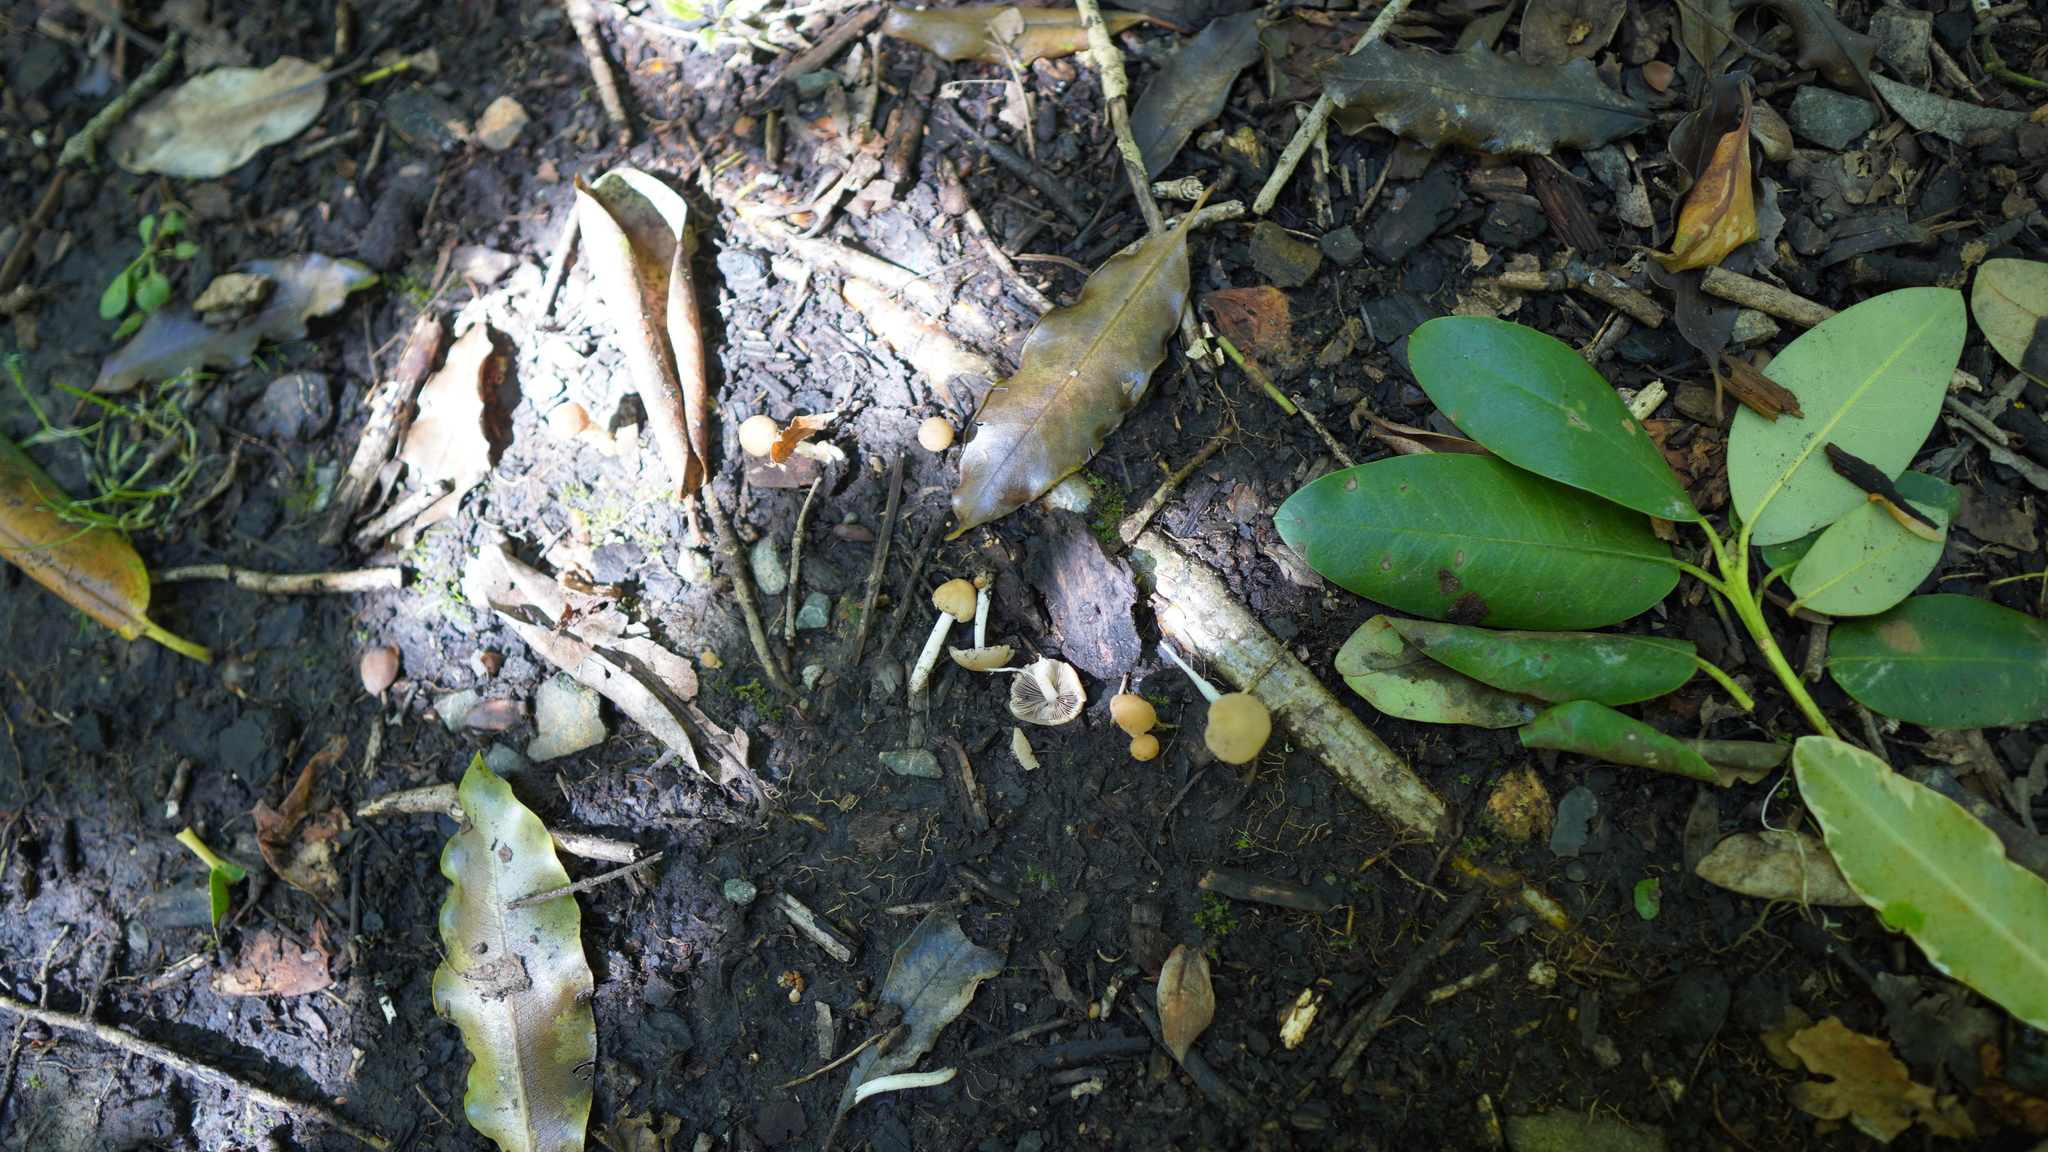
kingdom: Fungi
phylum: Basidiomycota
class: Agaricomycetes
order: Agaricales
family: Psathyrellaceae
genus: Candolleomyces
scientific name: Candolleomyces candolleanus
